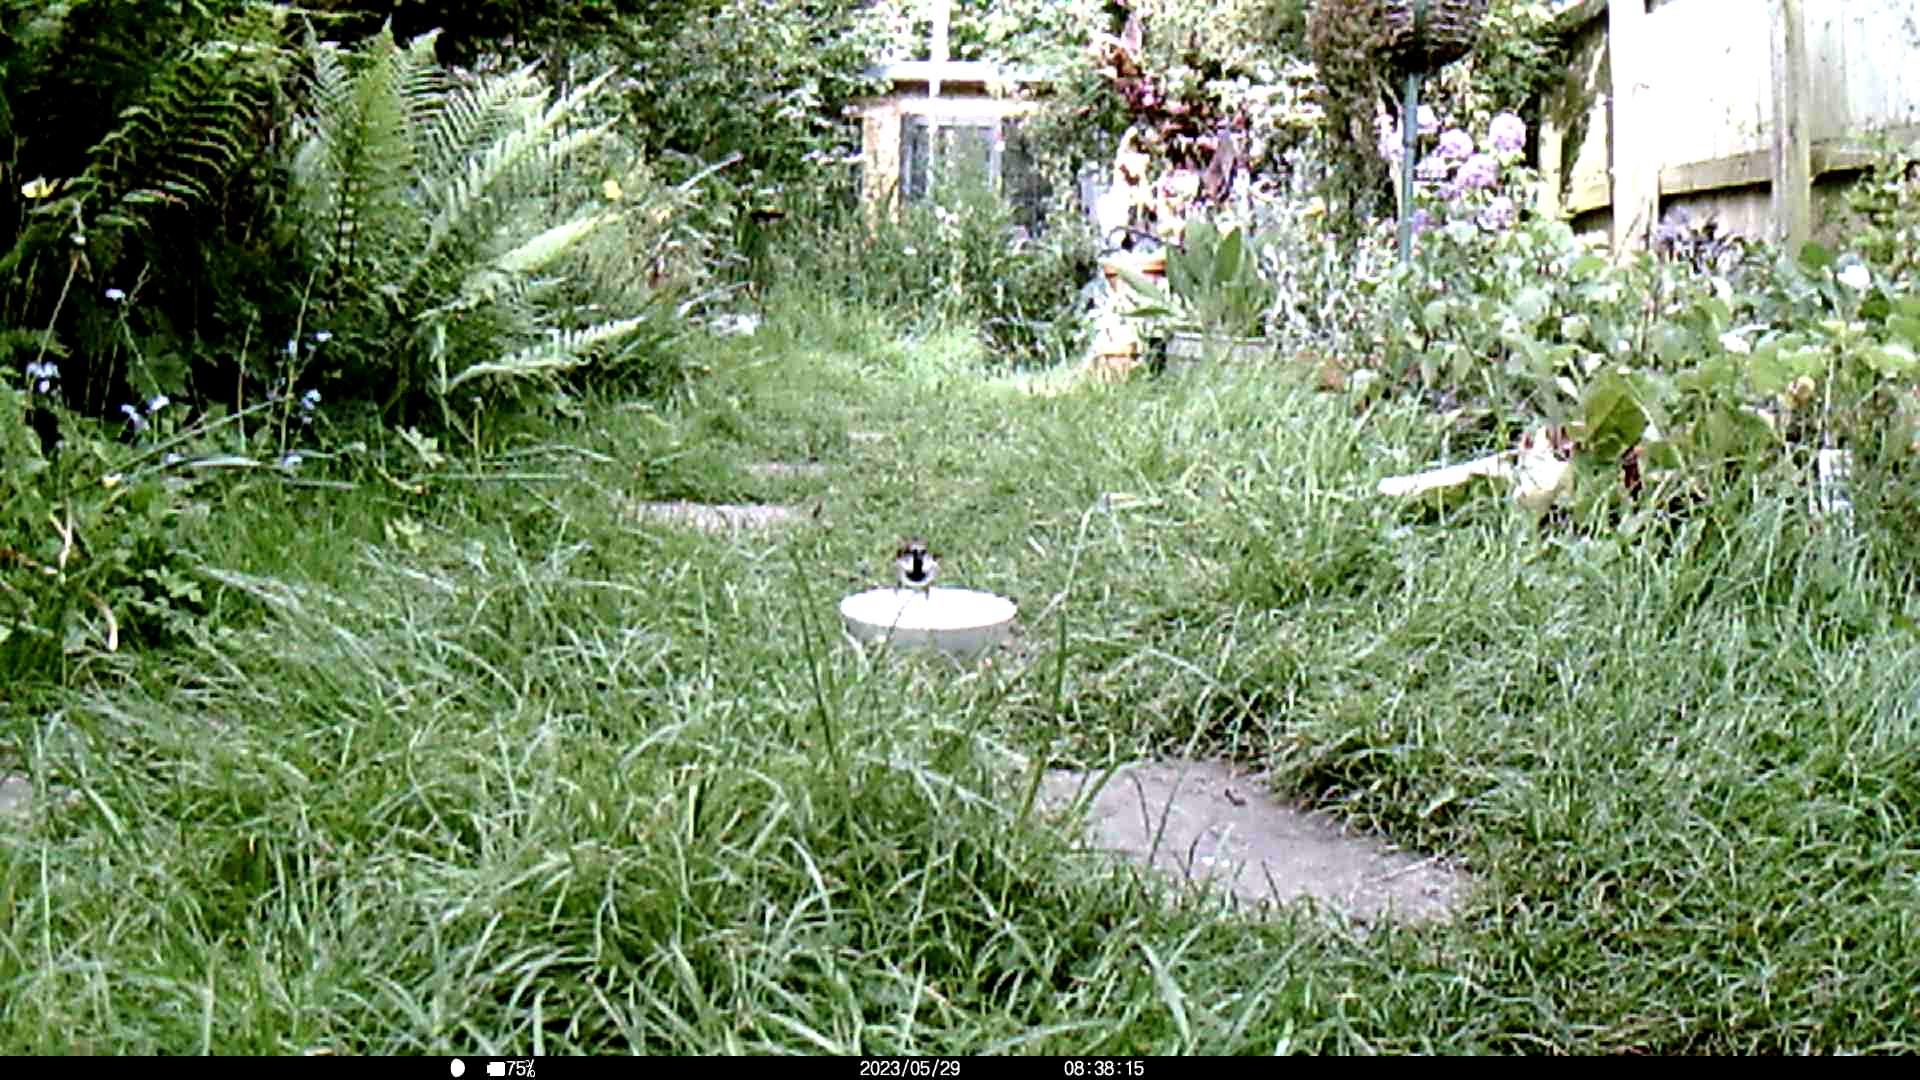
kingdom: Animalia
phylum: Chordata
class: Aves
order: Passeriformes
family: Passeridae
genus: Passer
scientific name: Passer domesticus
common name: House sparrow
